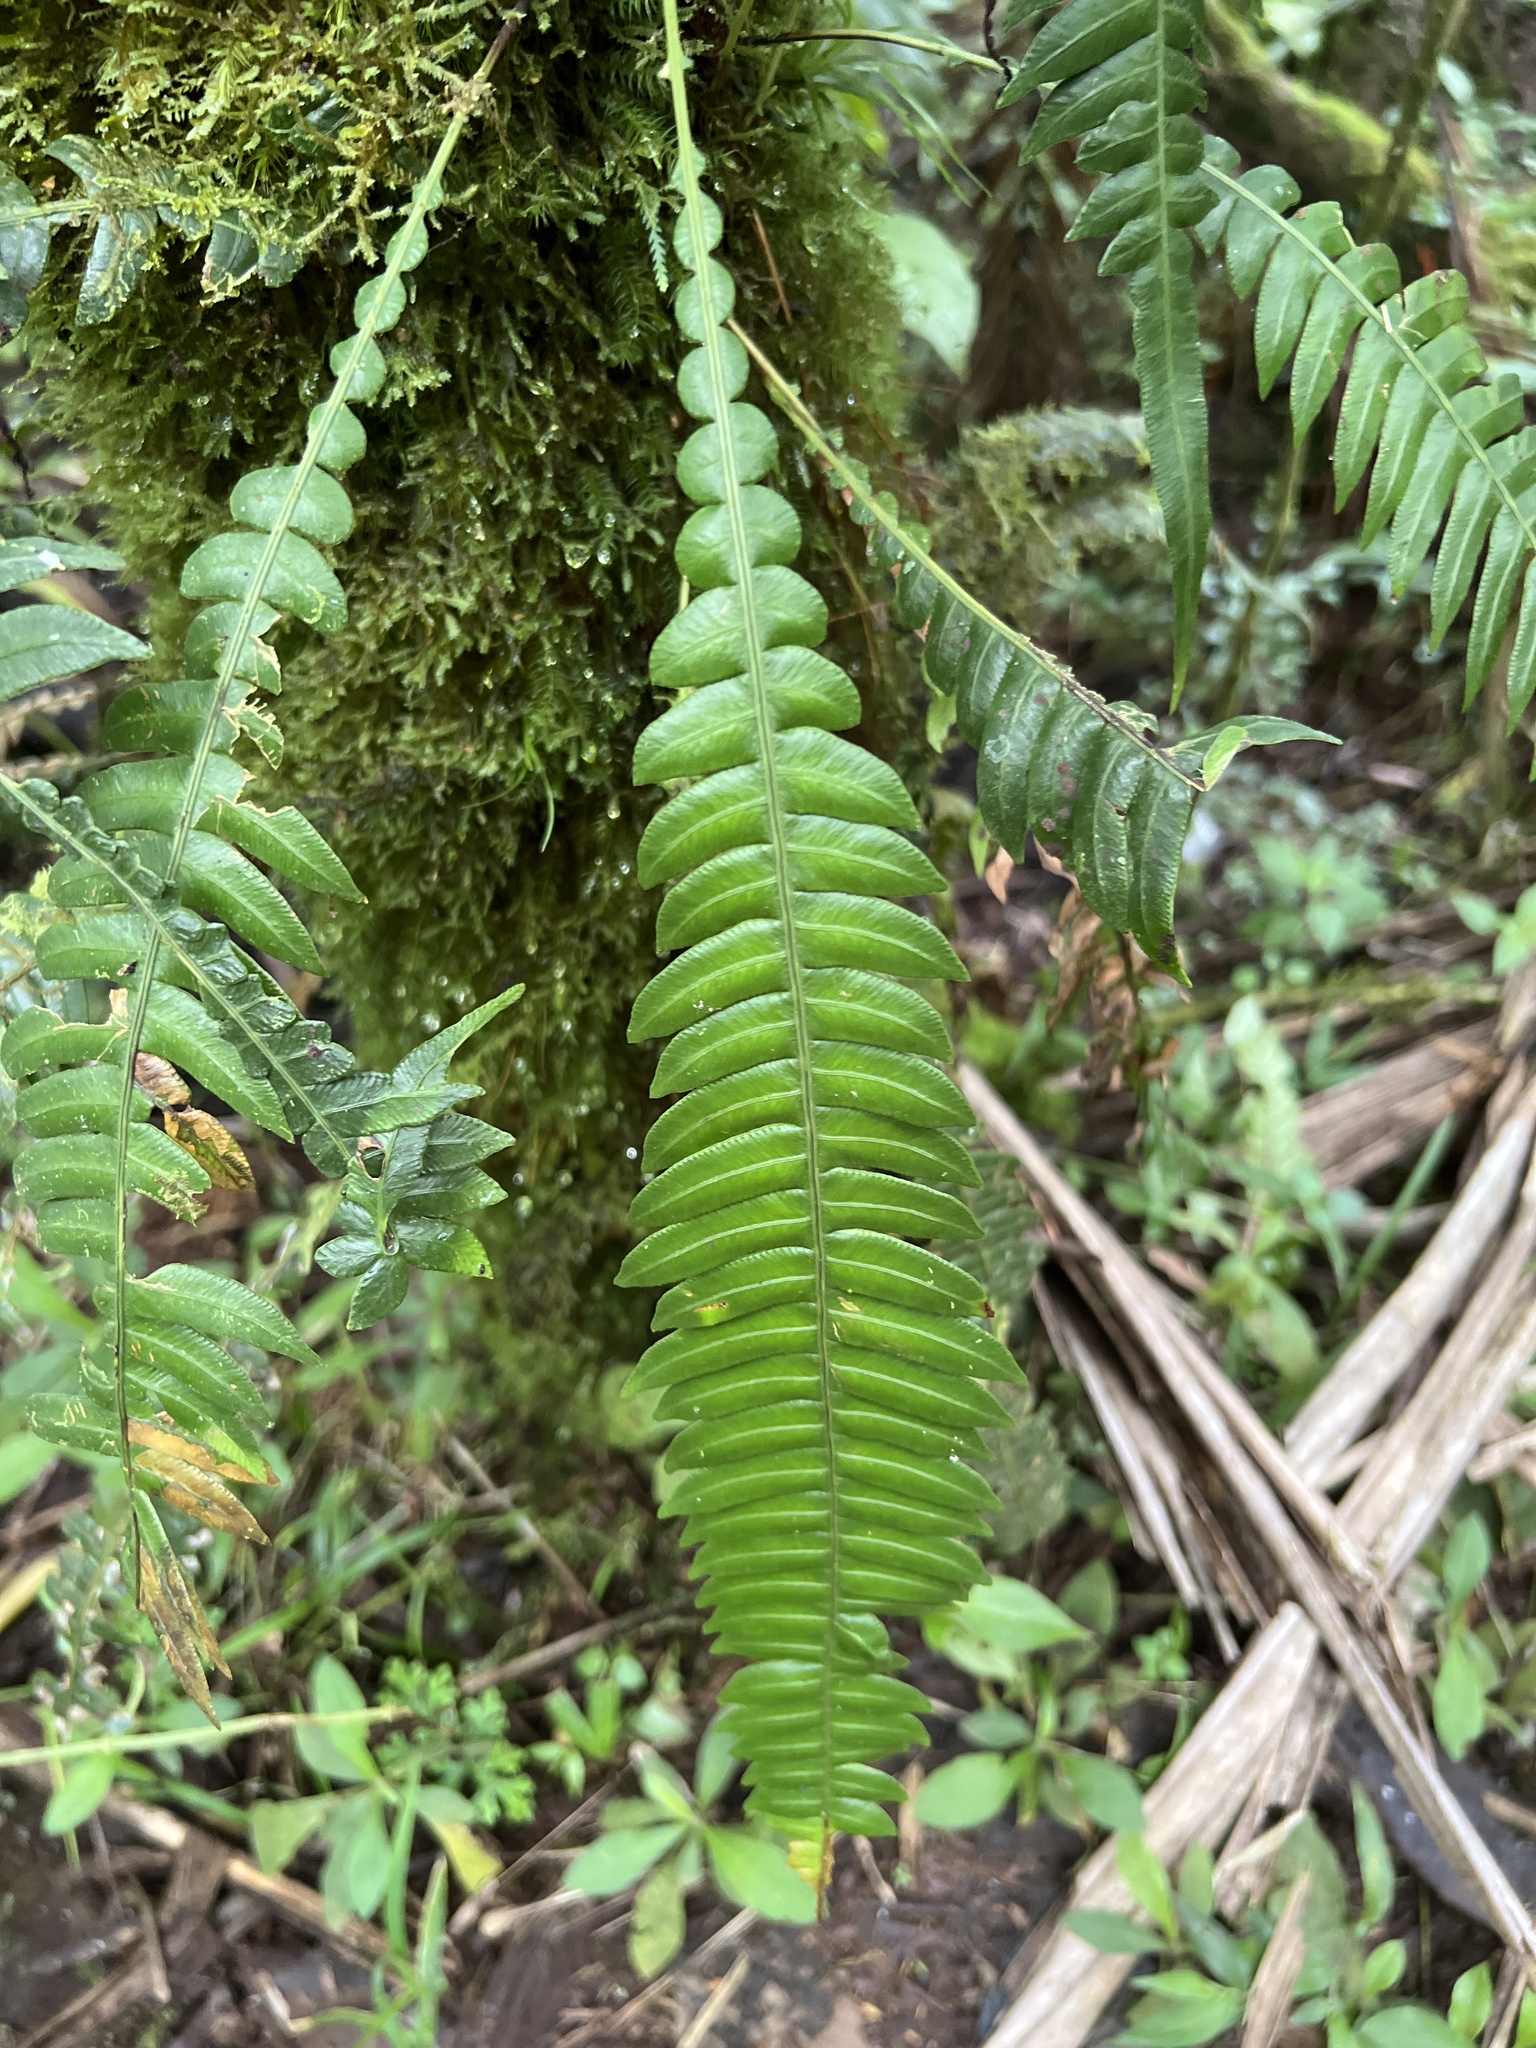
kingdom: Plantae
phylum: Tracheophyta
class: Polypodiopsida
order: Polypodiales
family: Blechnaceae
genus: Lomaridium
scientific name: Lomaridium fragile
